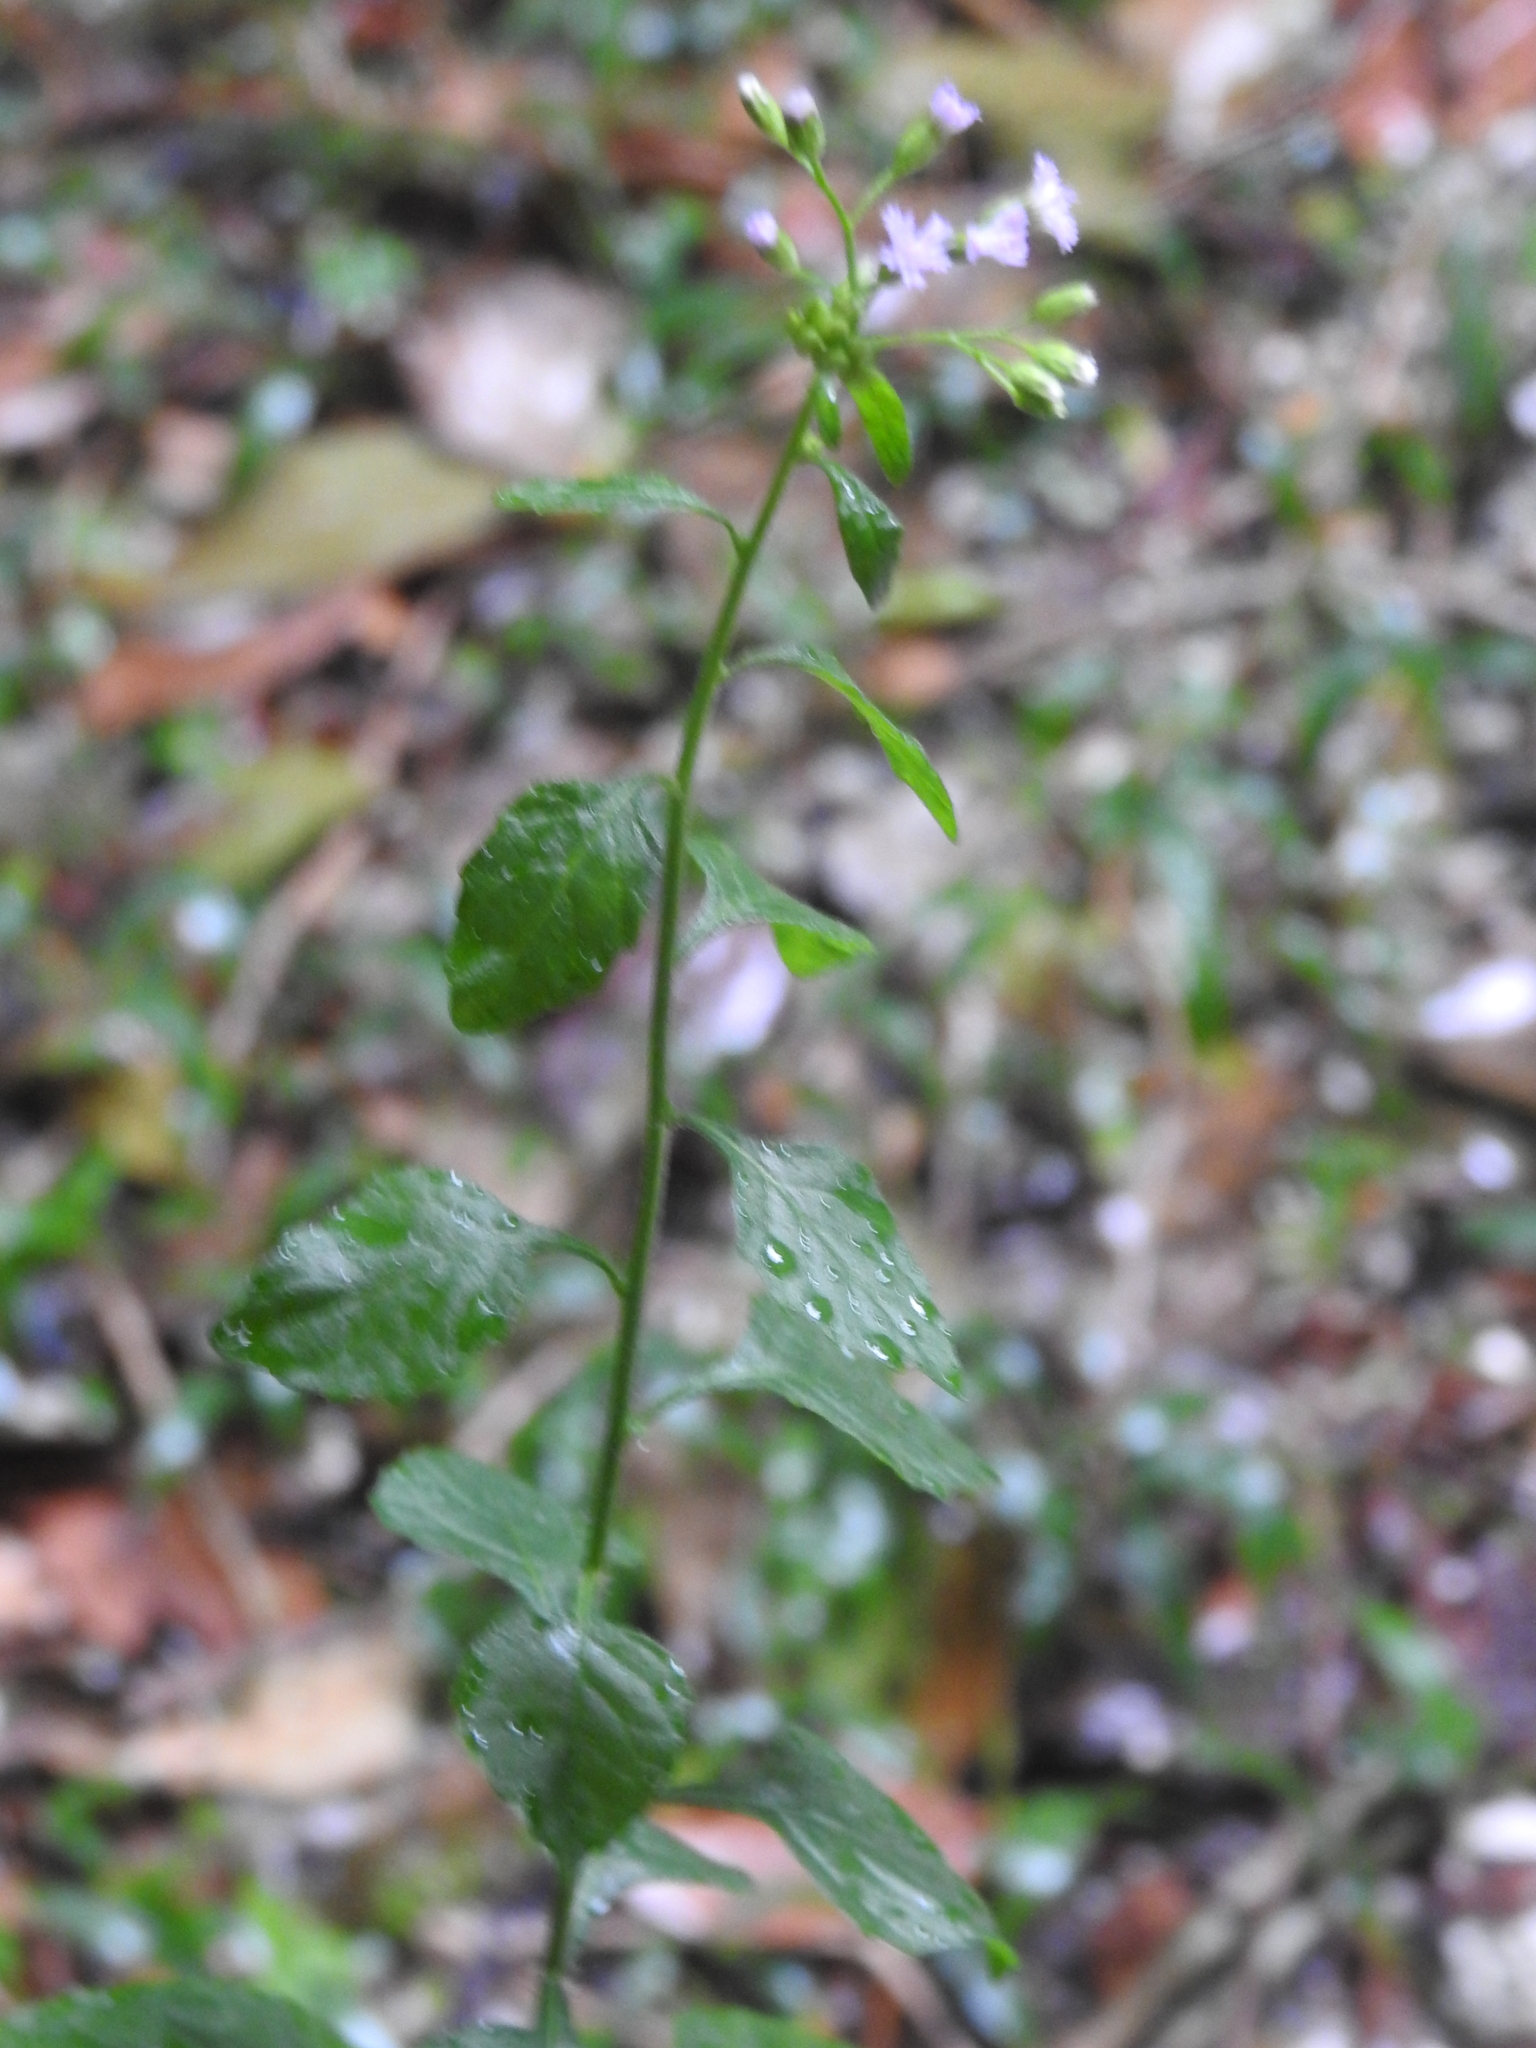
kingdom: Plantae
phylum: Tracheophyta
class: Magnoliopsida
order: Asterales
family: Asteraceae
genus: Cyanthillium
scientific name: Cyanthillium cinereum
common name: Little ironweed
